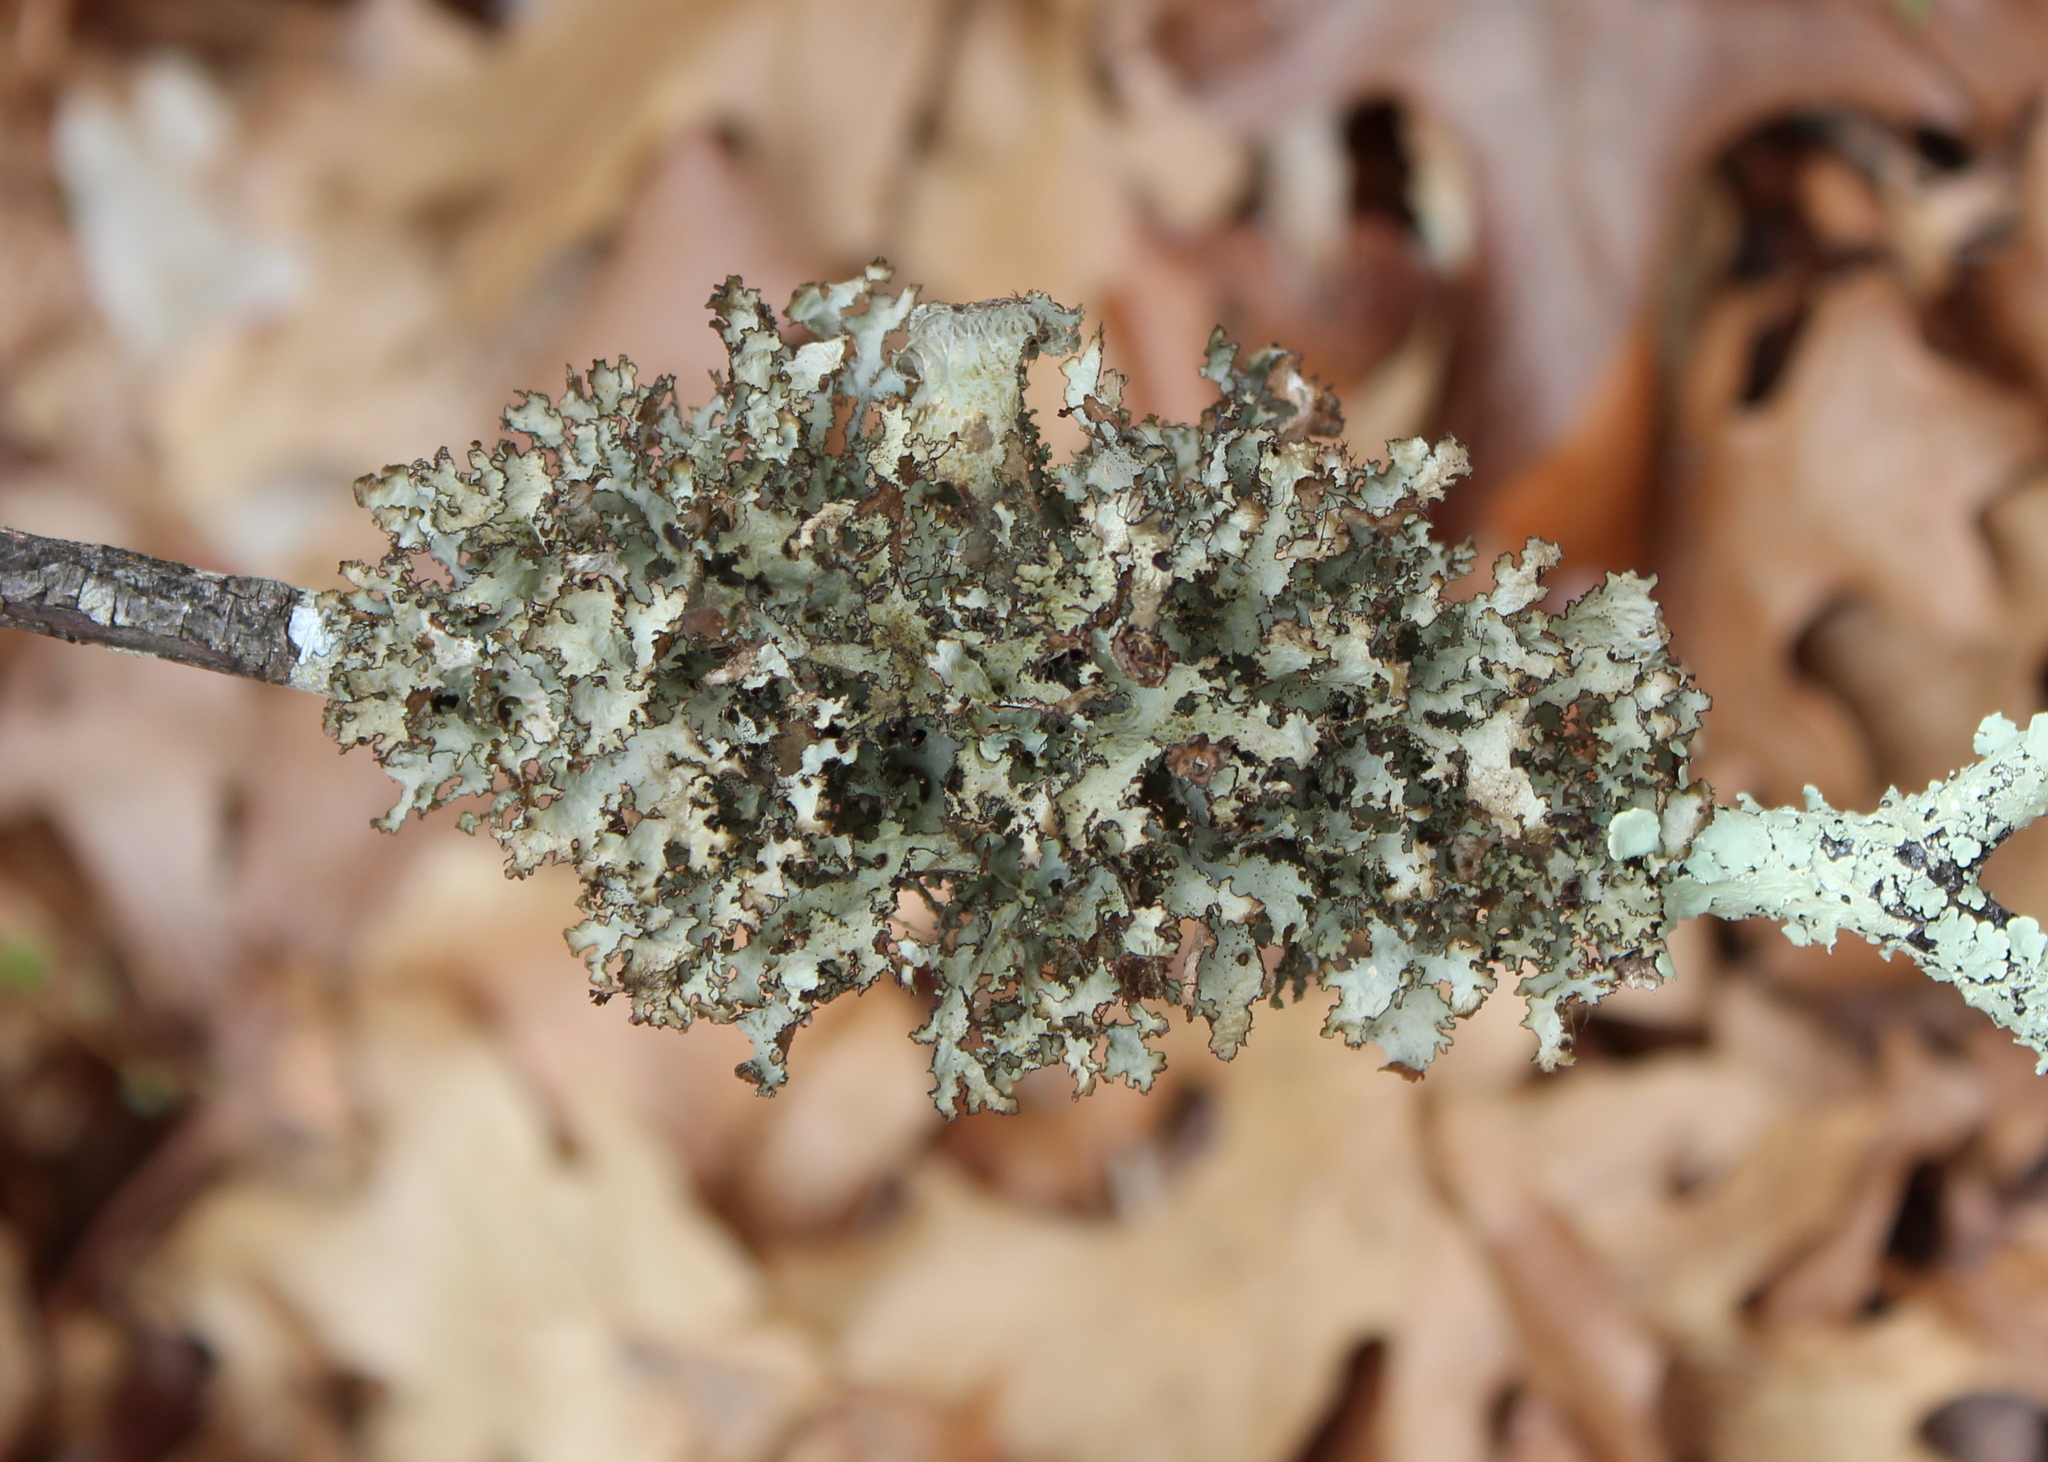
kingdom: Fungi
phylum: Ascomycota
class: Lecanoromycetes
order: Lecanorales
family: Parmeliaceae
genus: Platismatia
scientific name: Platismatia tuckermanii
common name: Crumpled rag lichen
